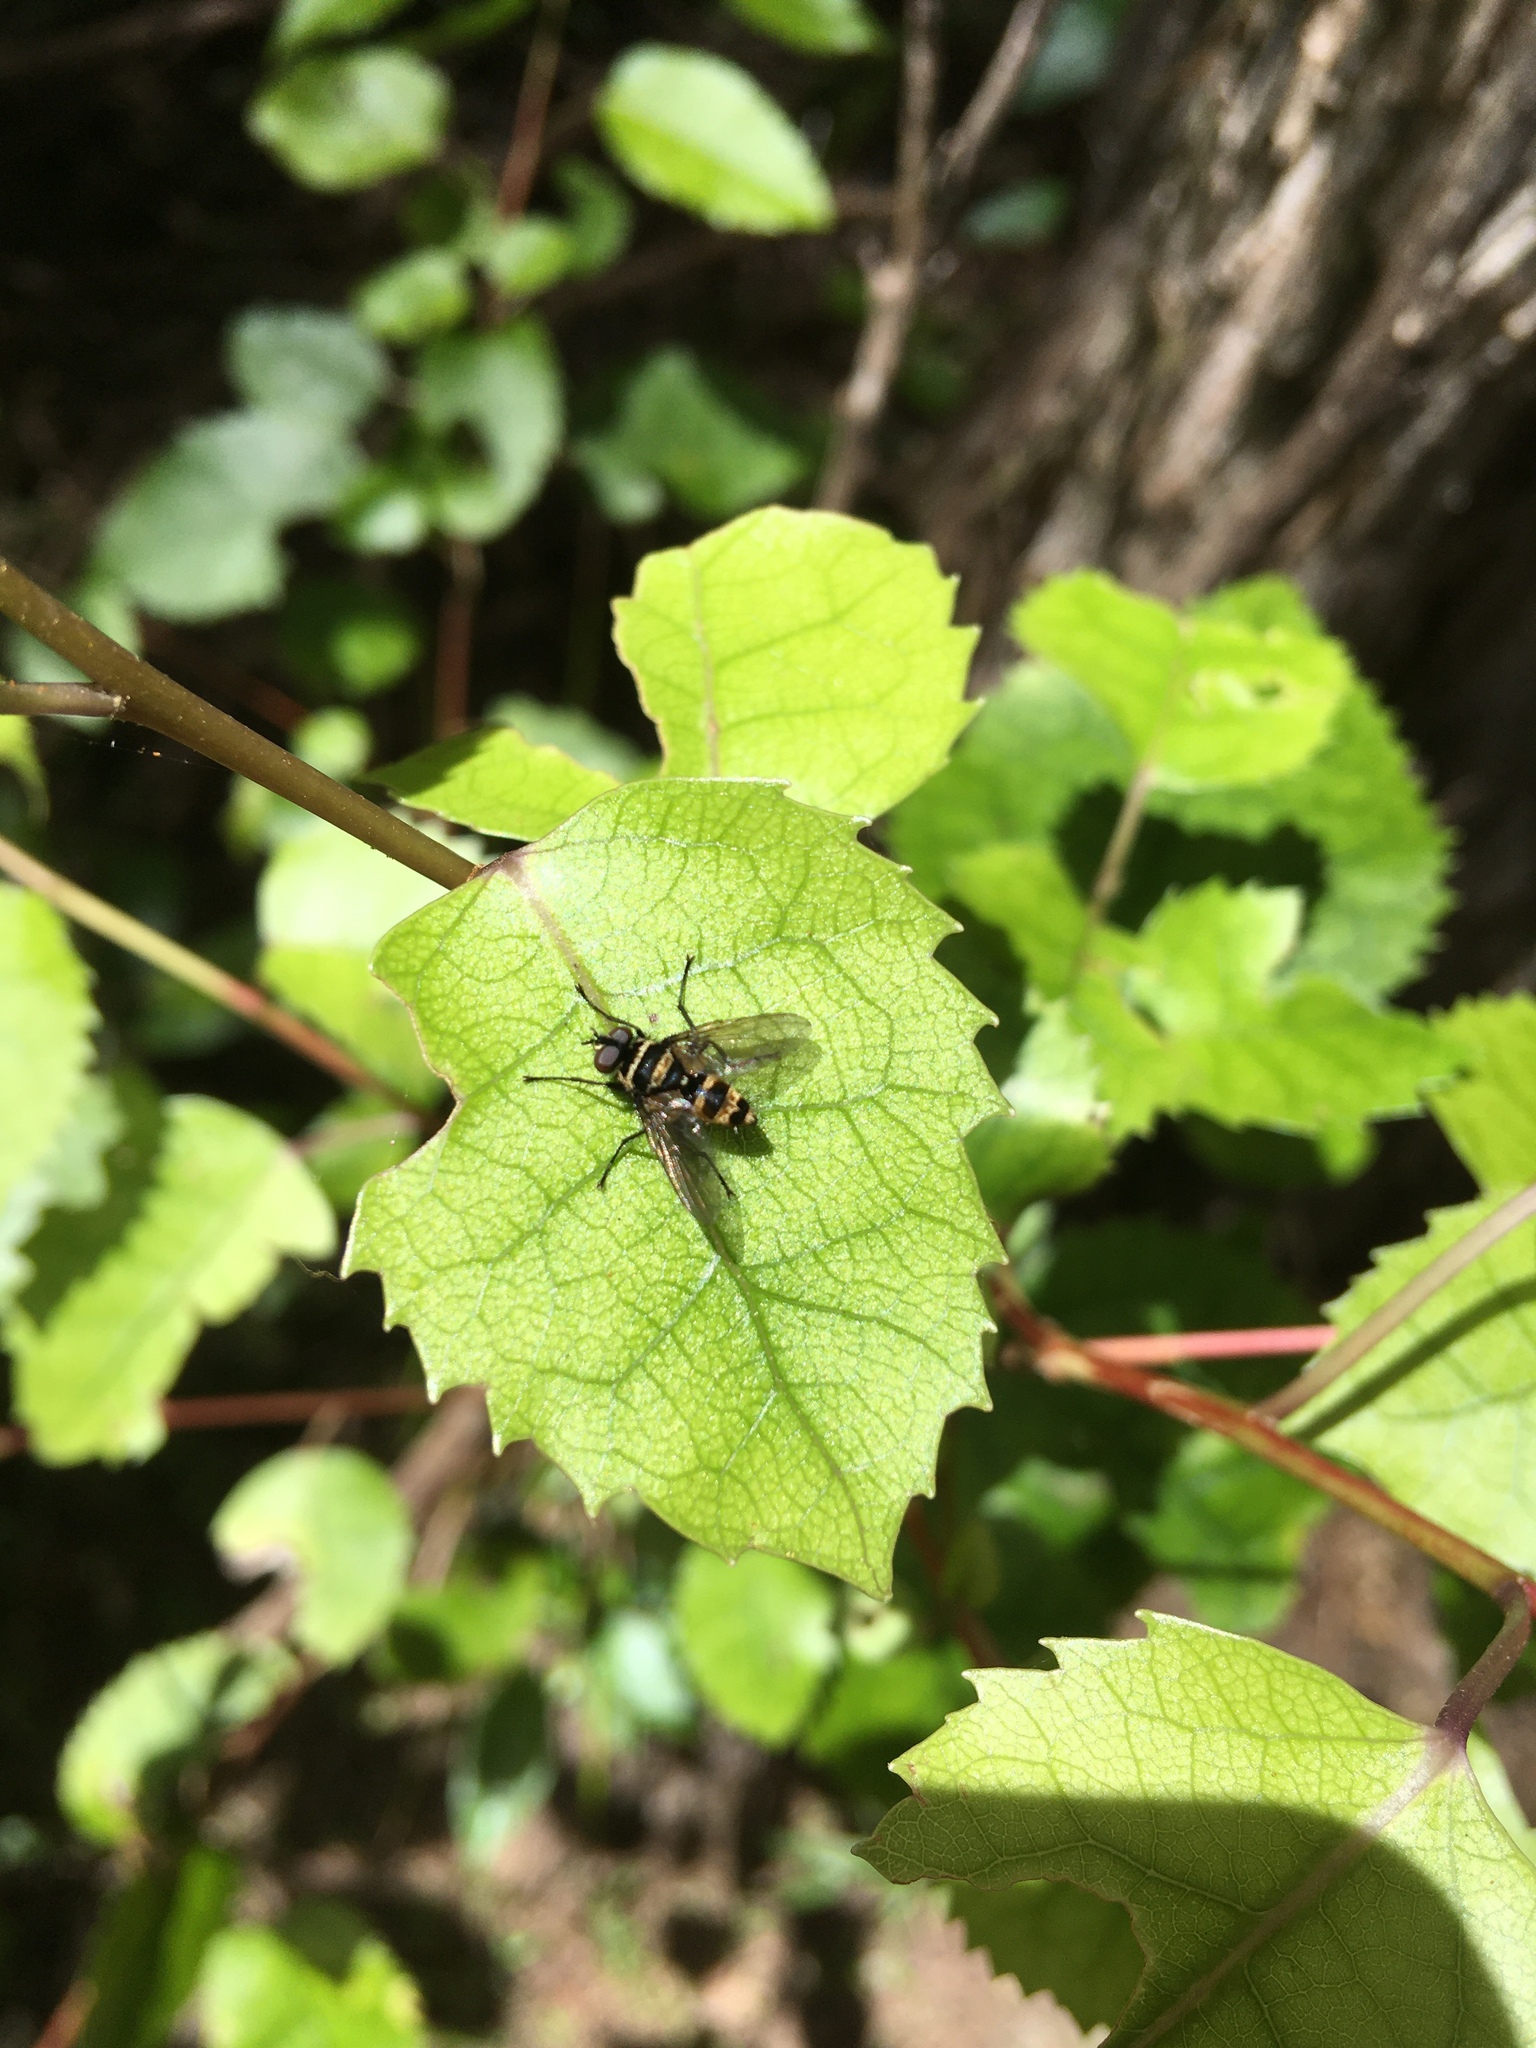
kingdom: Animalia
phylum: Arthropoda
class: Insecta
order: Diptera
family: Tachinidae
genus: Trigonospila
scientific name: Trigonospila brevifacies
